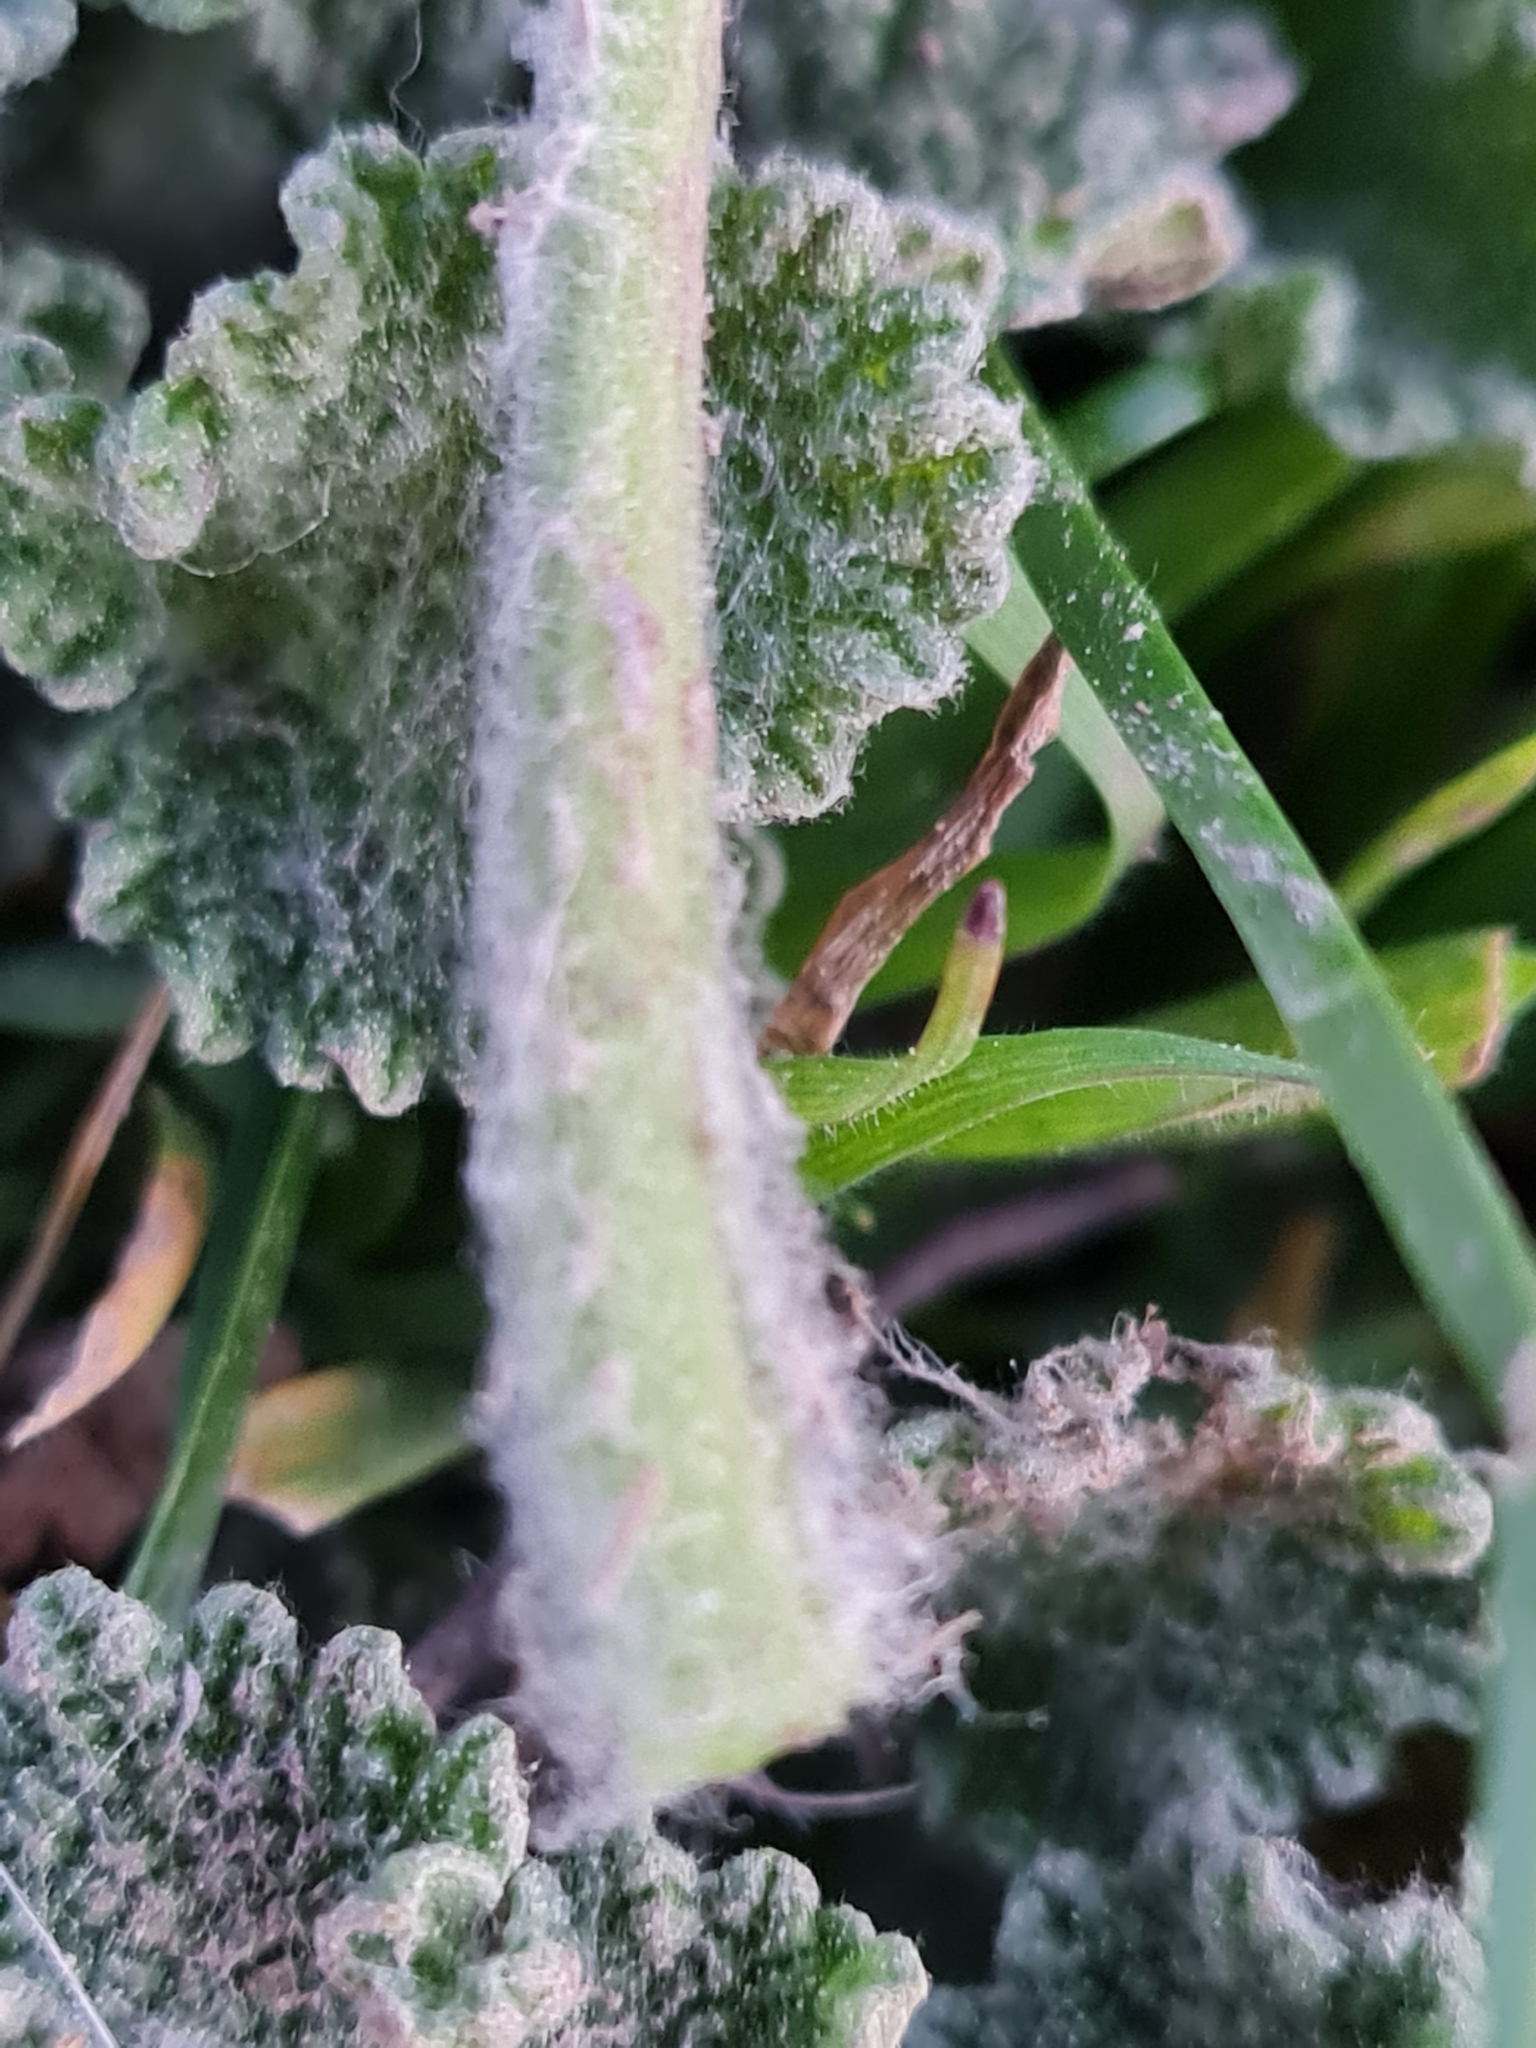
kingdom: Plantae
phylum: Tracheophyta
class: Magnoliopsida
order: Lamiales
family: Lamiaceae
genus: Marrubium
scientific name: Marrubium vulgare
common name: Horehound
